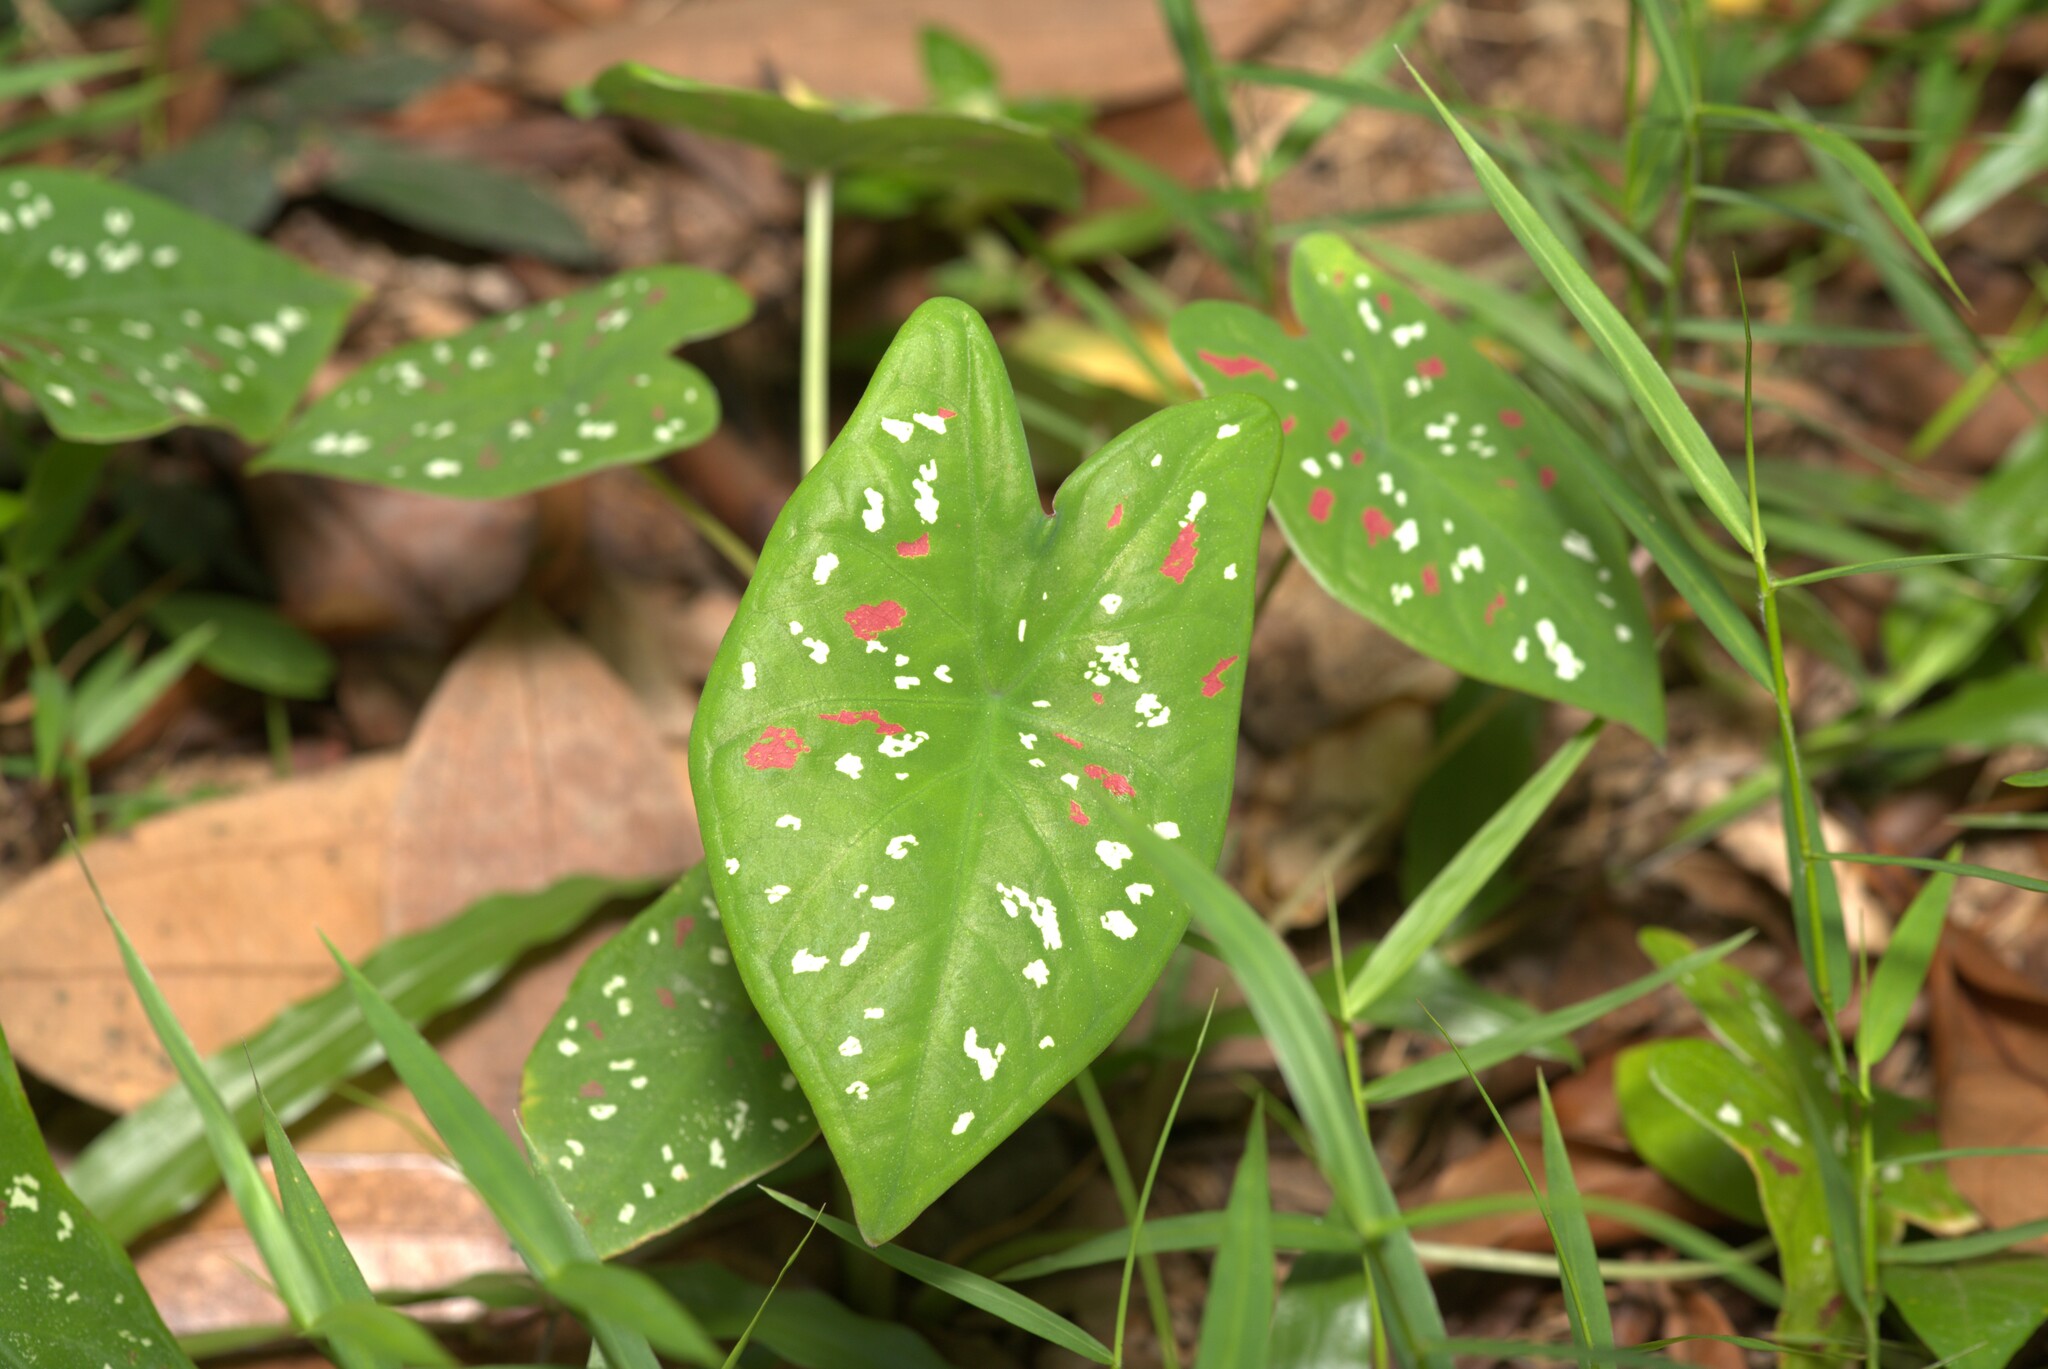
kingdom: Plantae
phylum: Tracheophyta
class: Liliopsida
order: Alismatales
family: Araceae
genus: Caladium
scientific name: Caladium bicolor
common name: Artist's pallet
